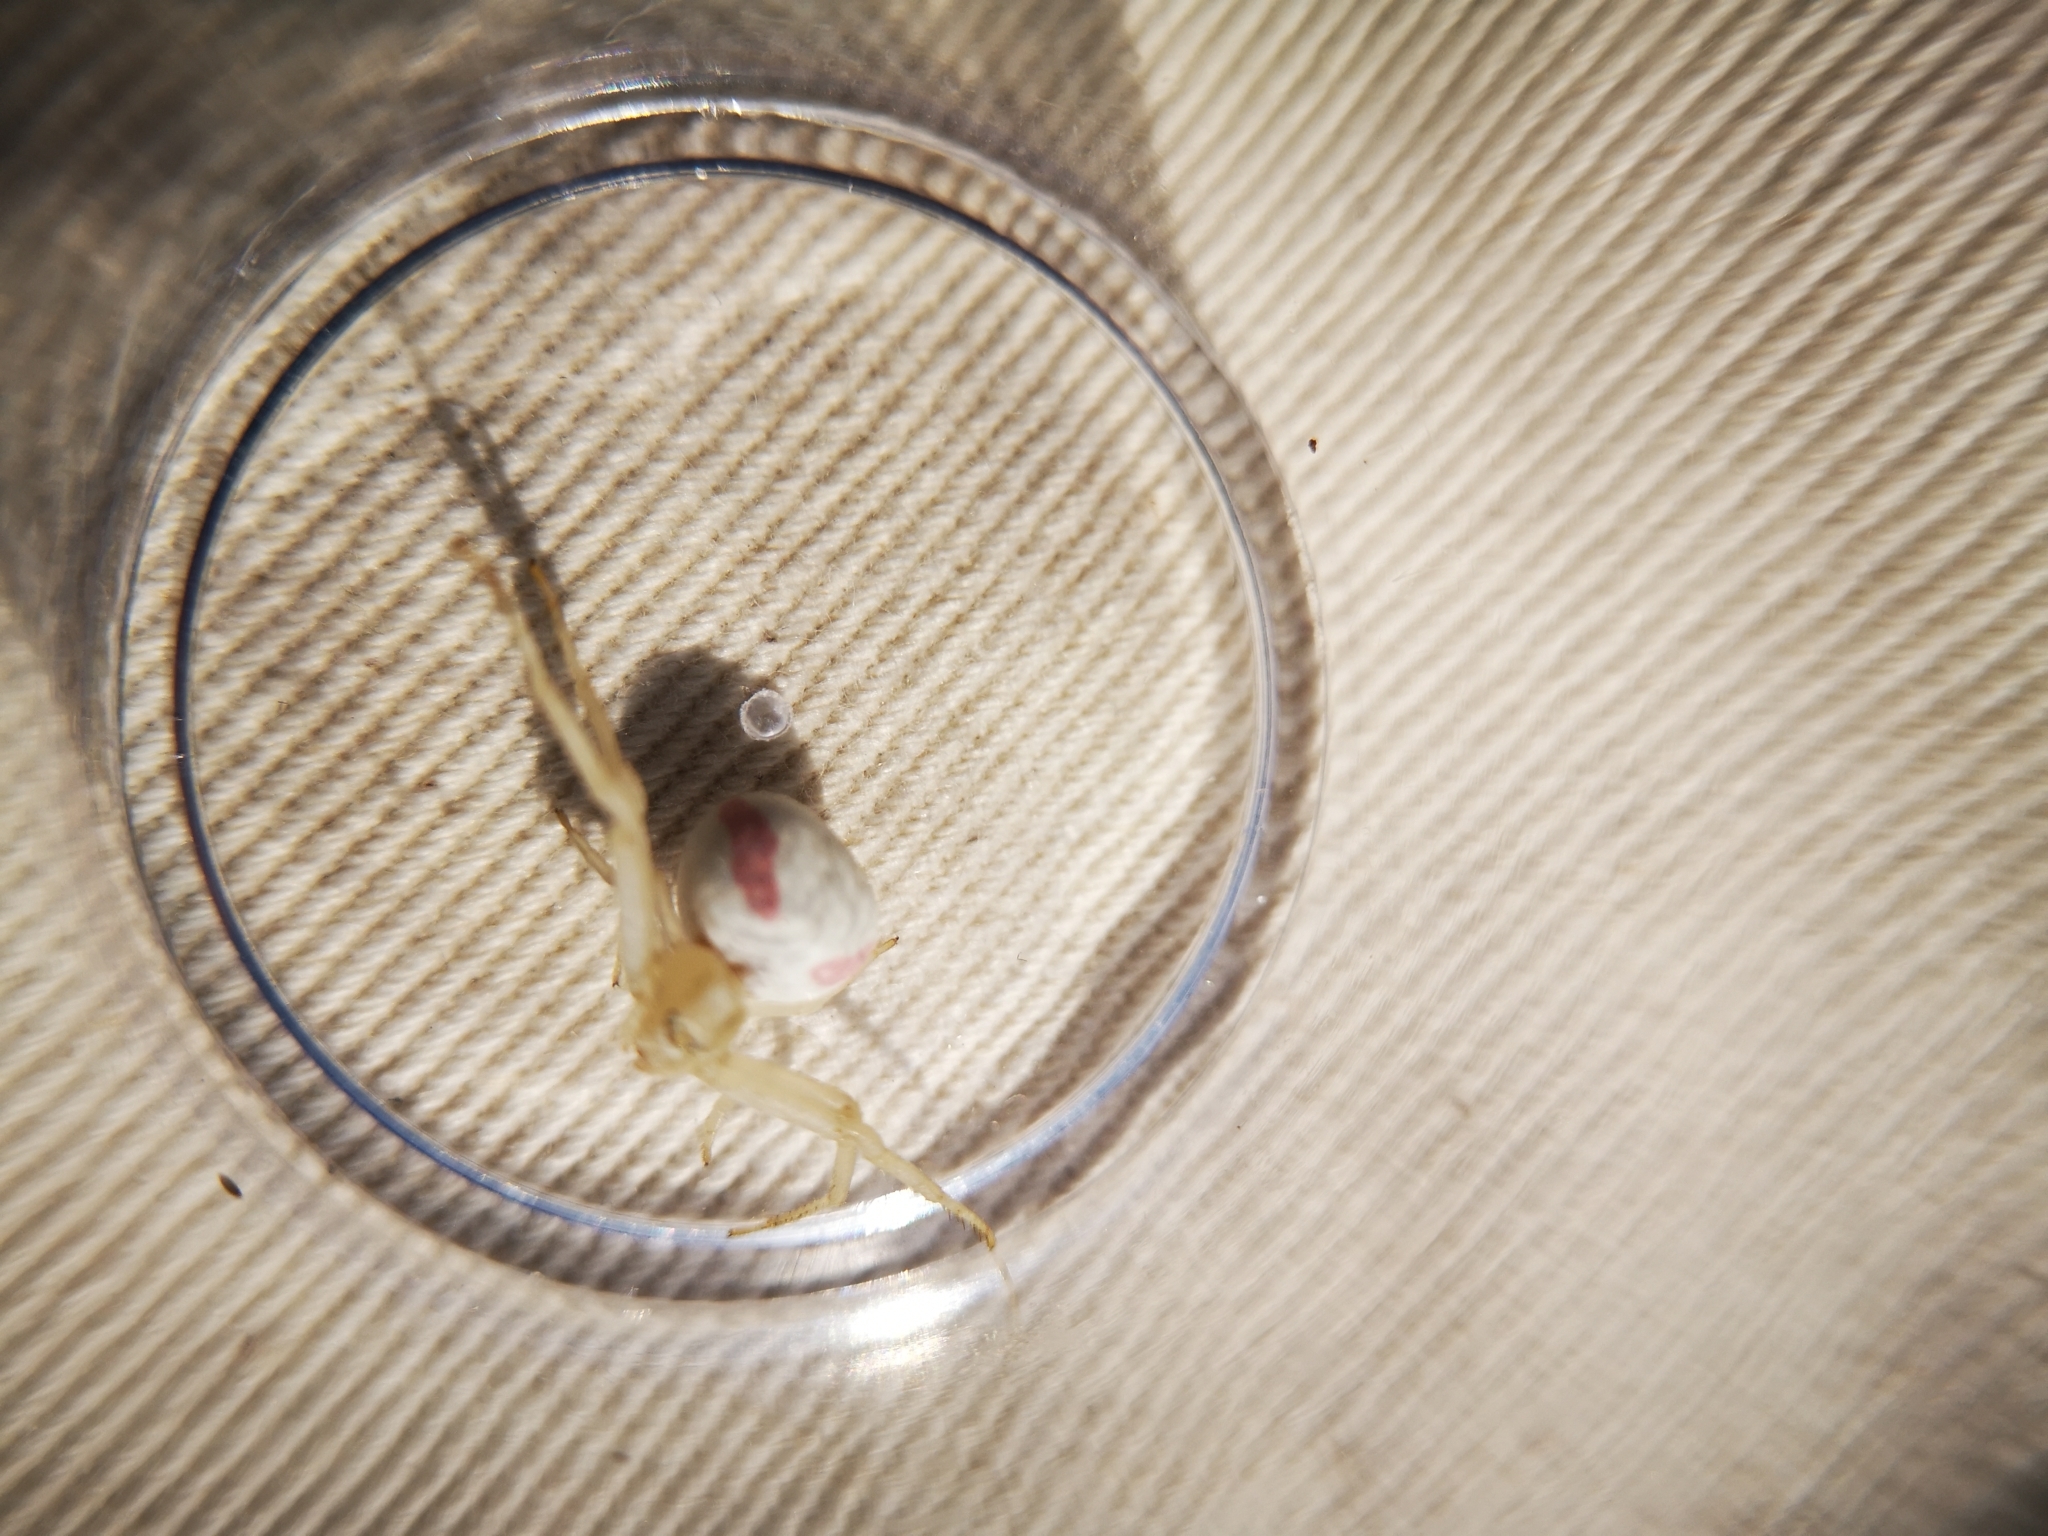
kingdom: Animalia
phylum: Arthropoda
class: Arachnida
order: Araneae
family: Thomisidae
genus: Misumena
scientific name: Misumena vatia
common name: Goldenrod crab spider
